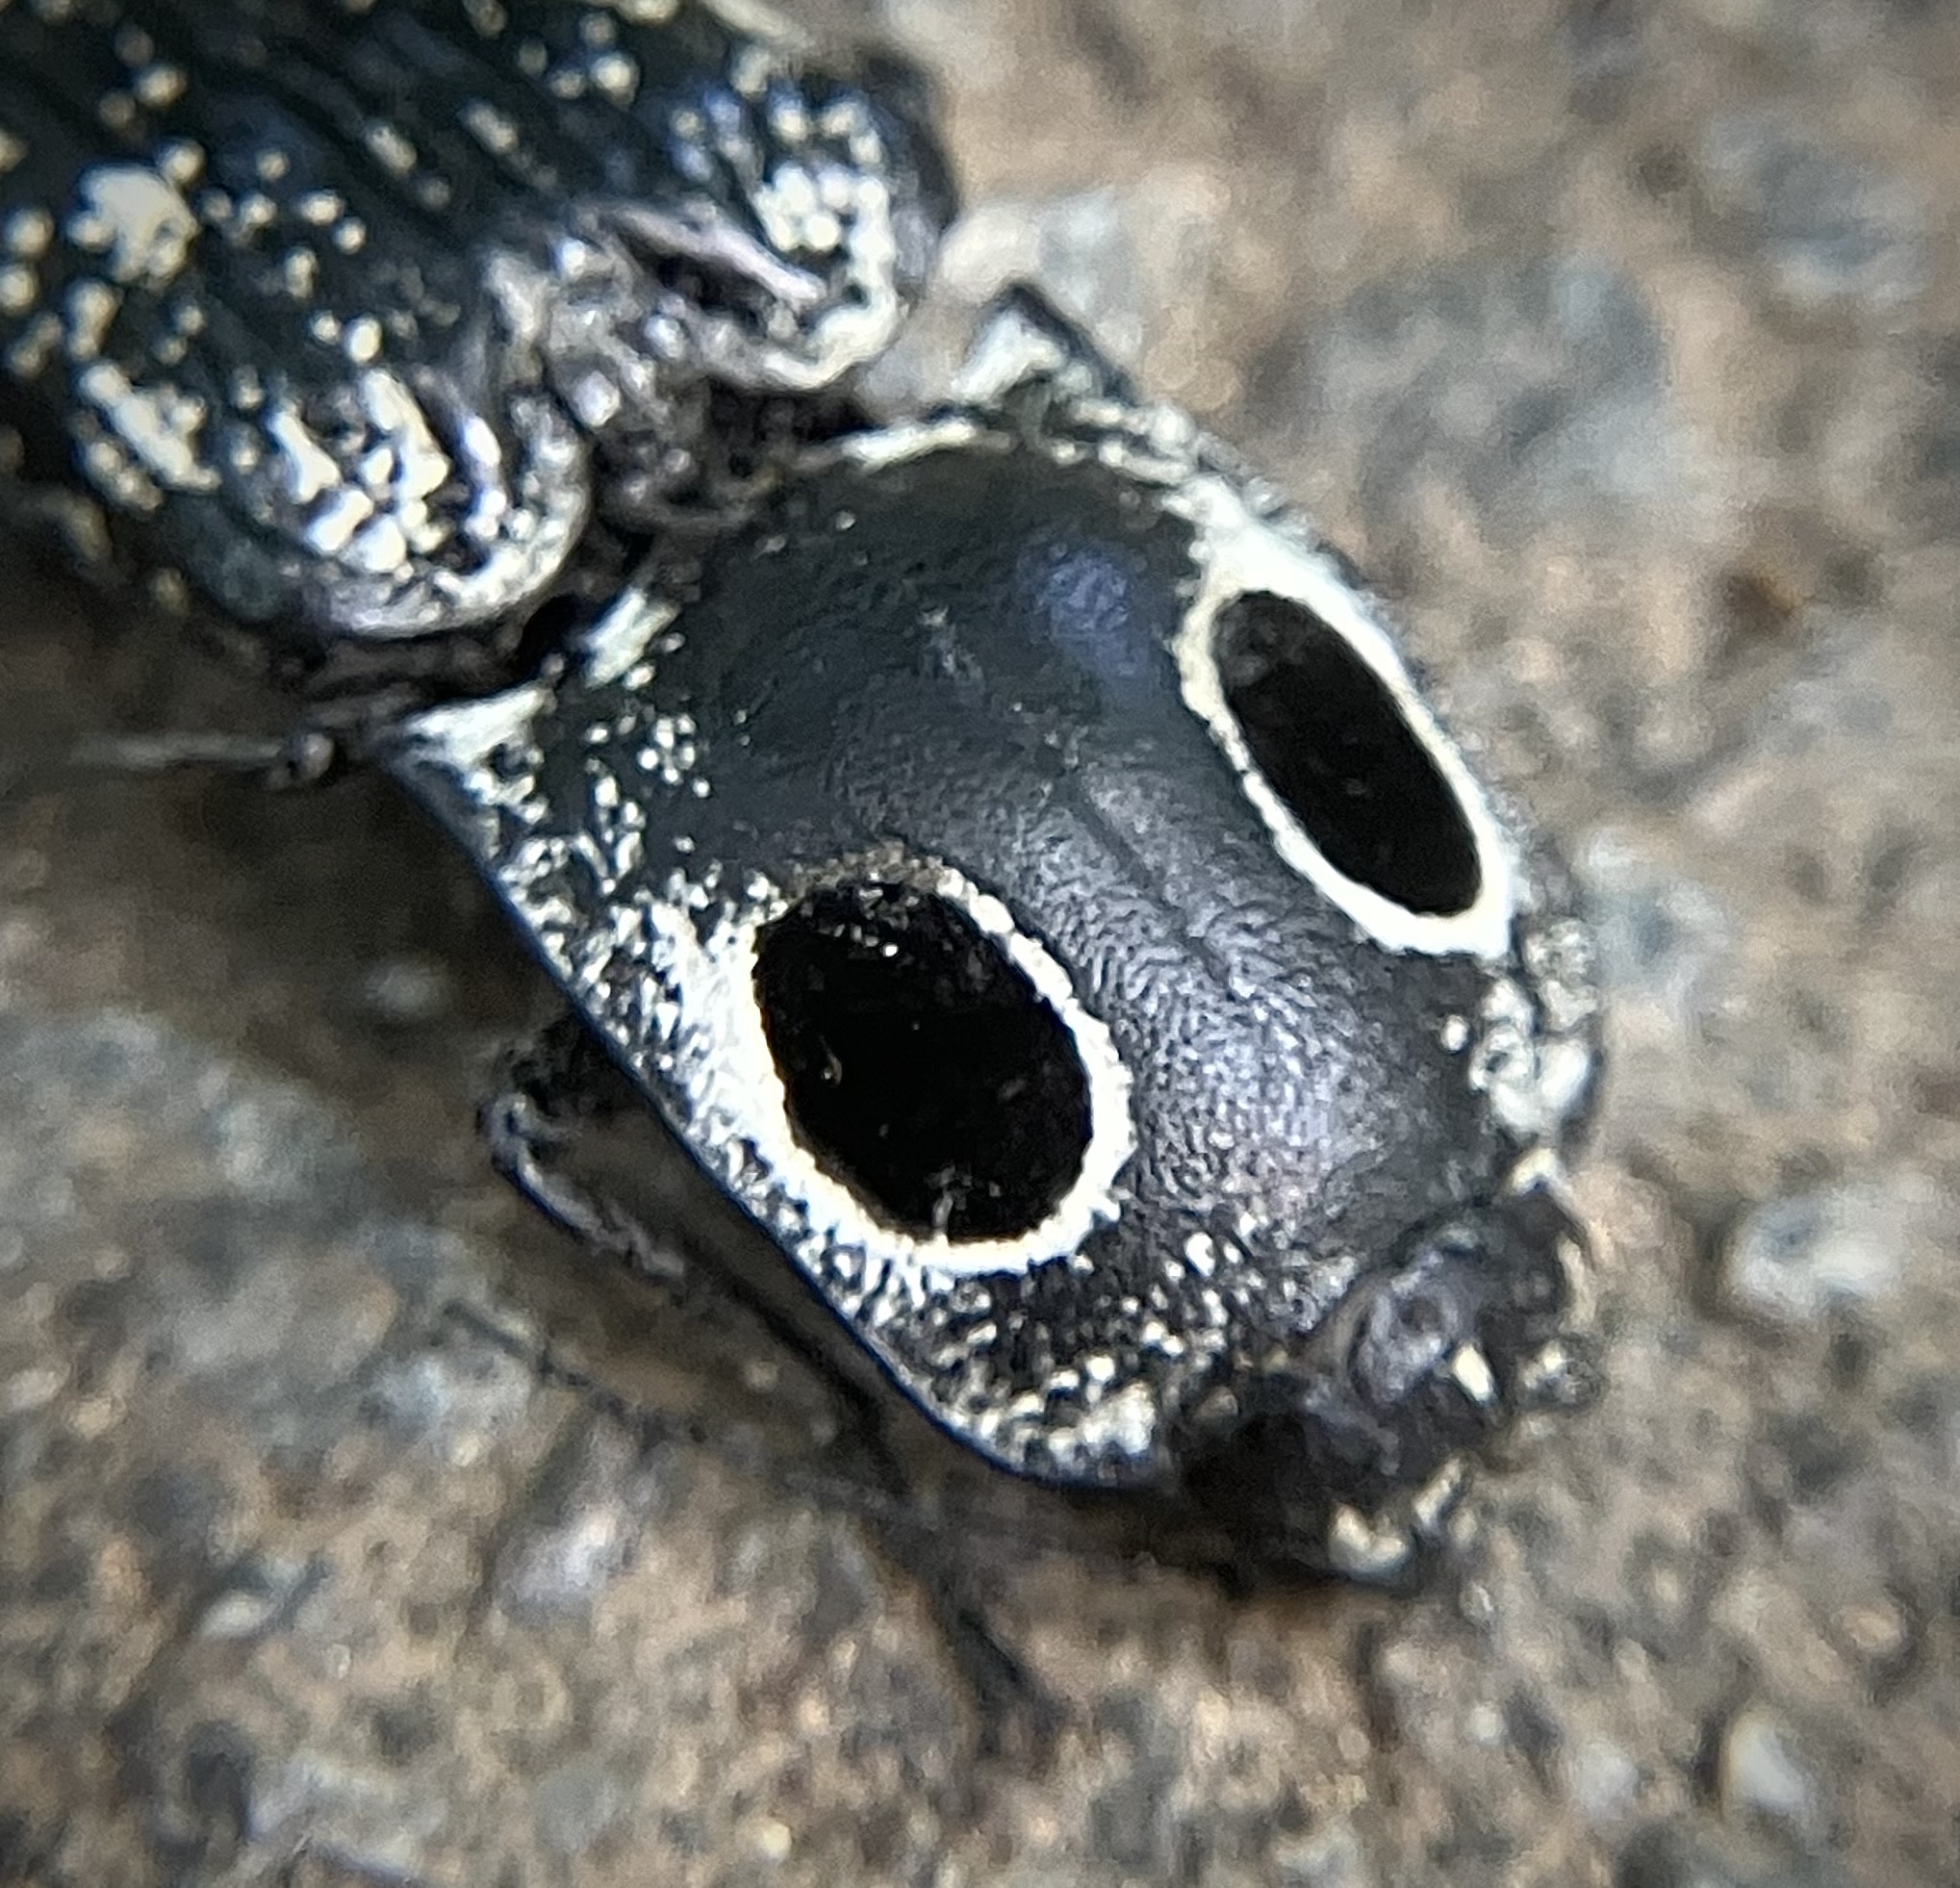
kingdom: Animalia
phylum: Arthropoda
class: Insecta
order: Coleoptera
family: Elateridae
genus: Alaus
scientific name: Alaus oculatus
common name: Eastern eyed click beetle
